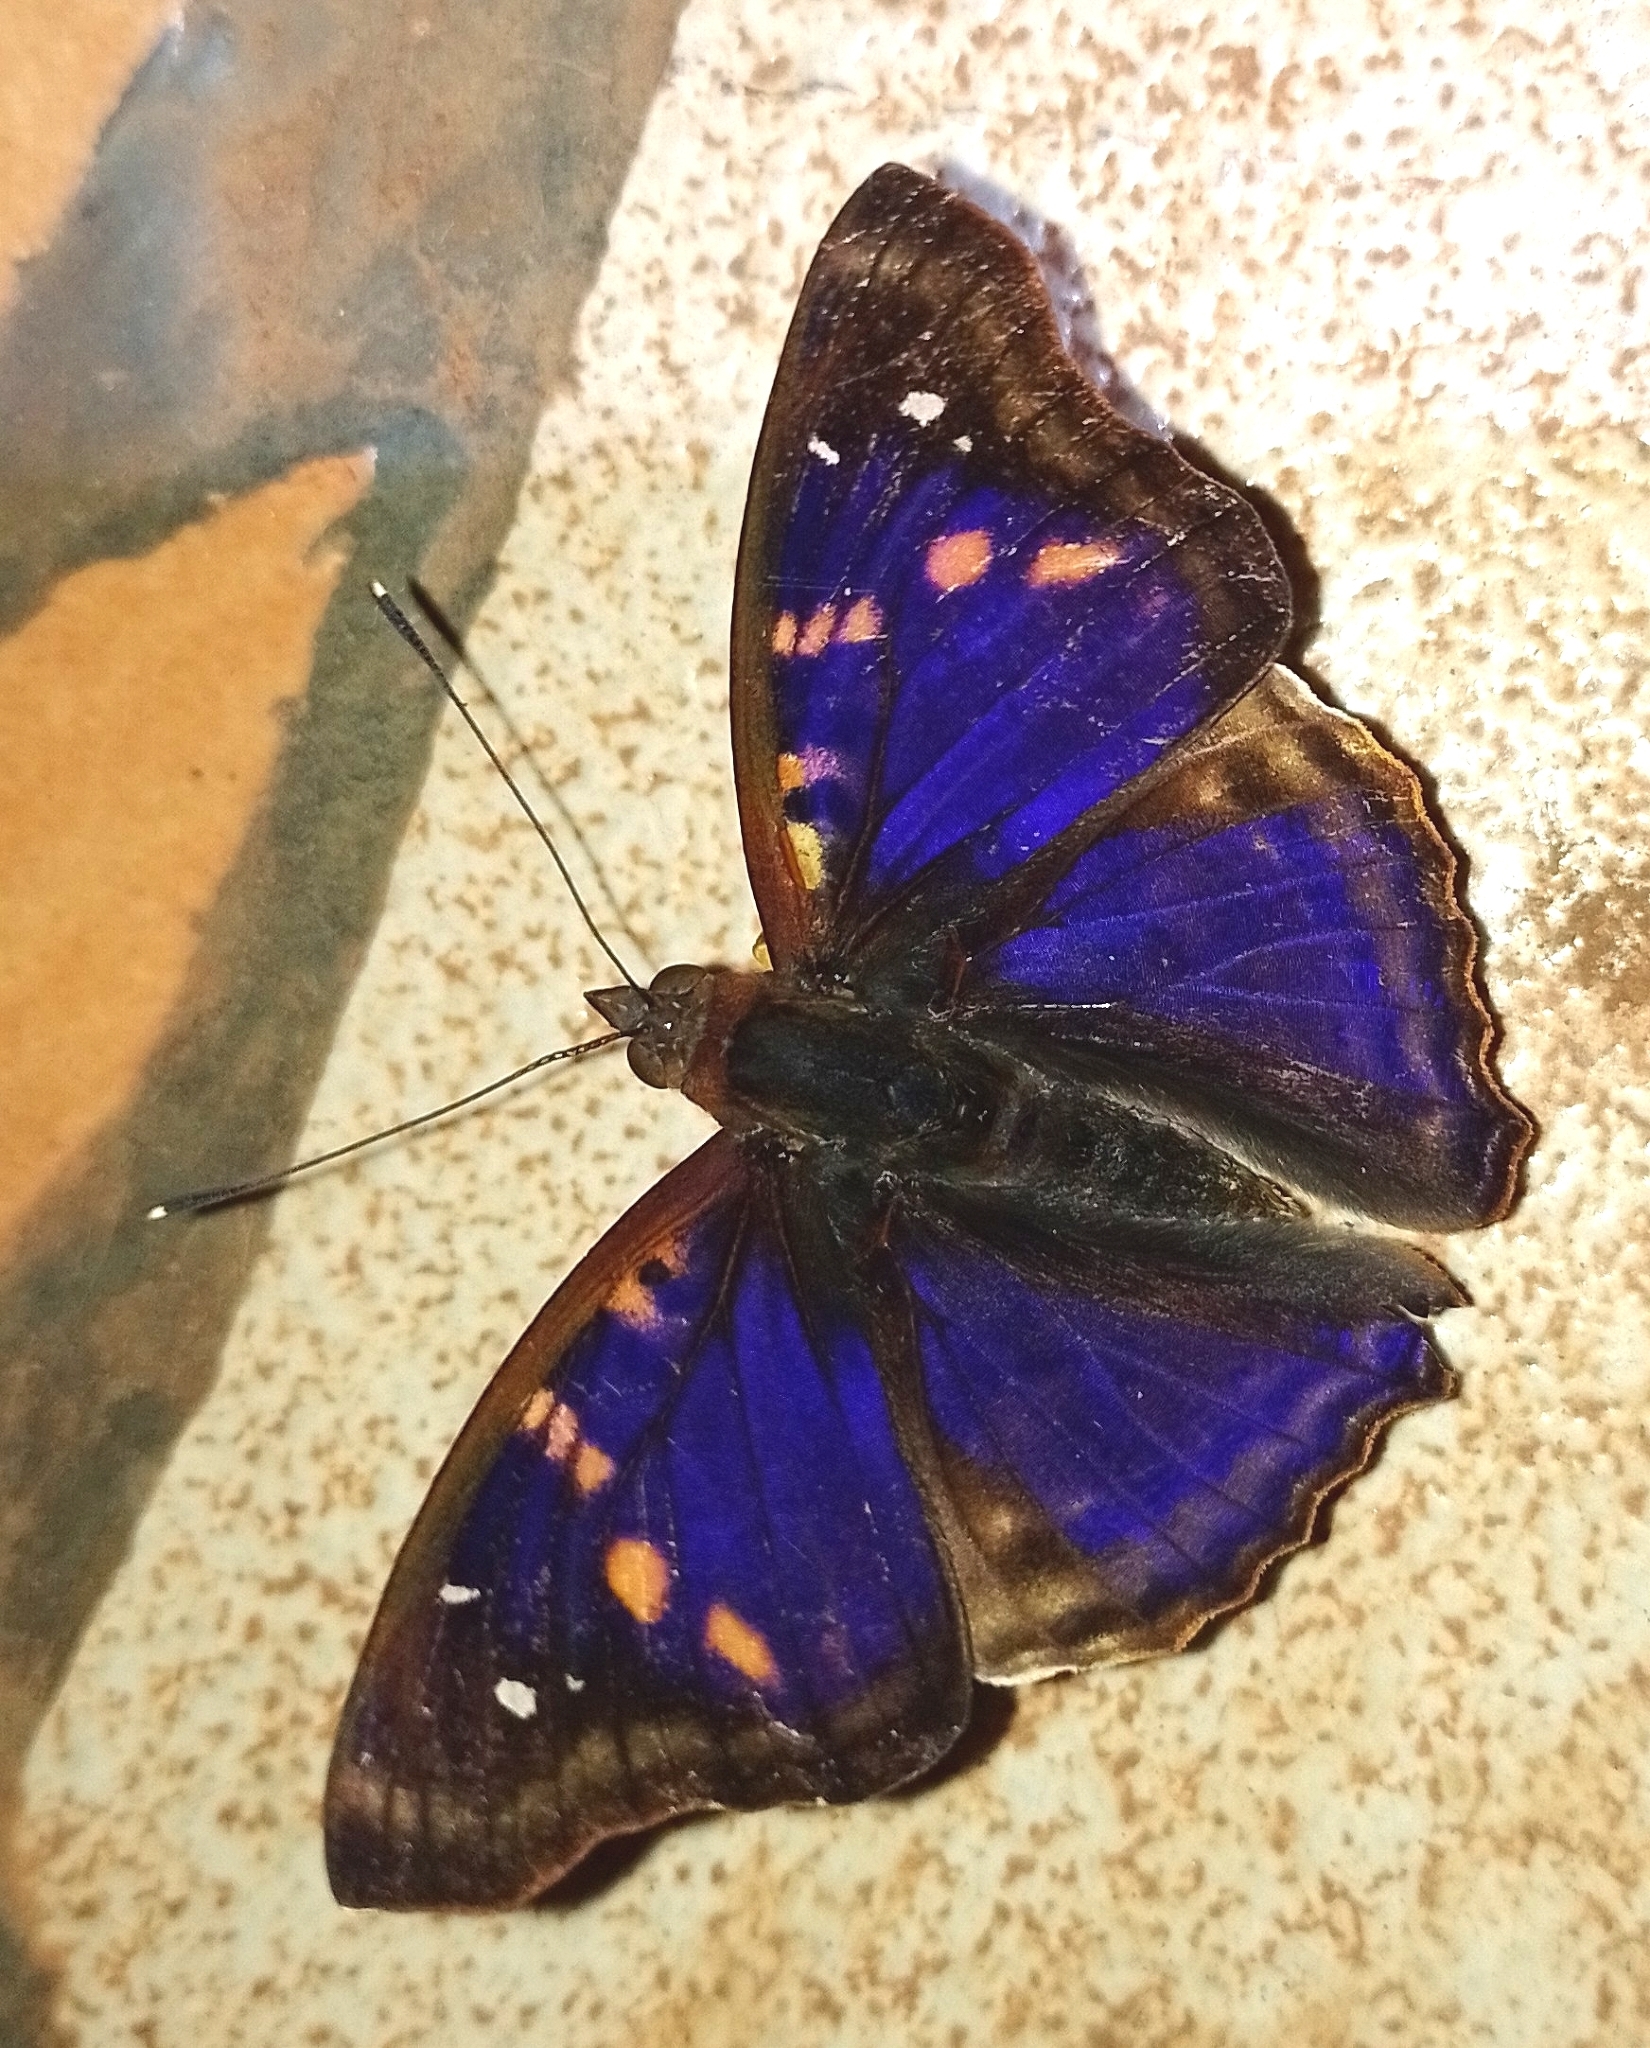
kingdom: Animalia
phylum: Arthropoda
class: Insecta
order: Lepidoptera
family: Nymphalidae
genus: Doxocopa
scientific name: Doxocopa agathina
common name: Agathina emperor
